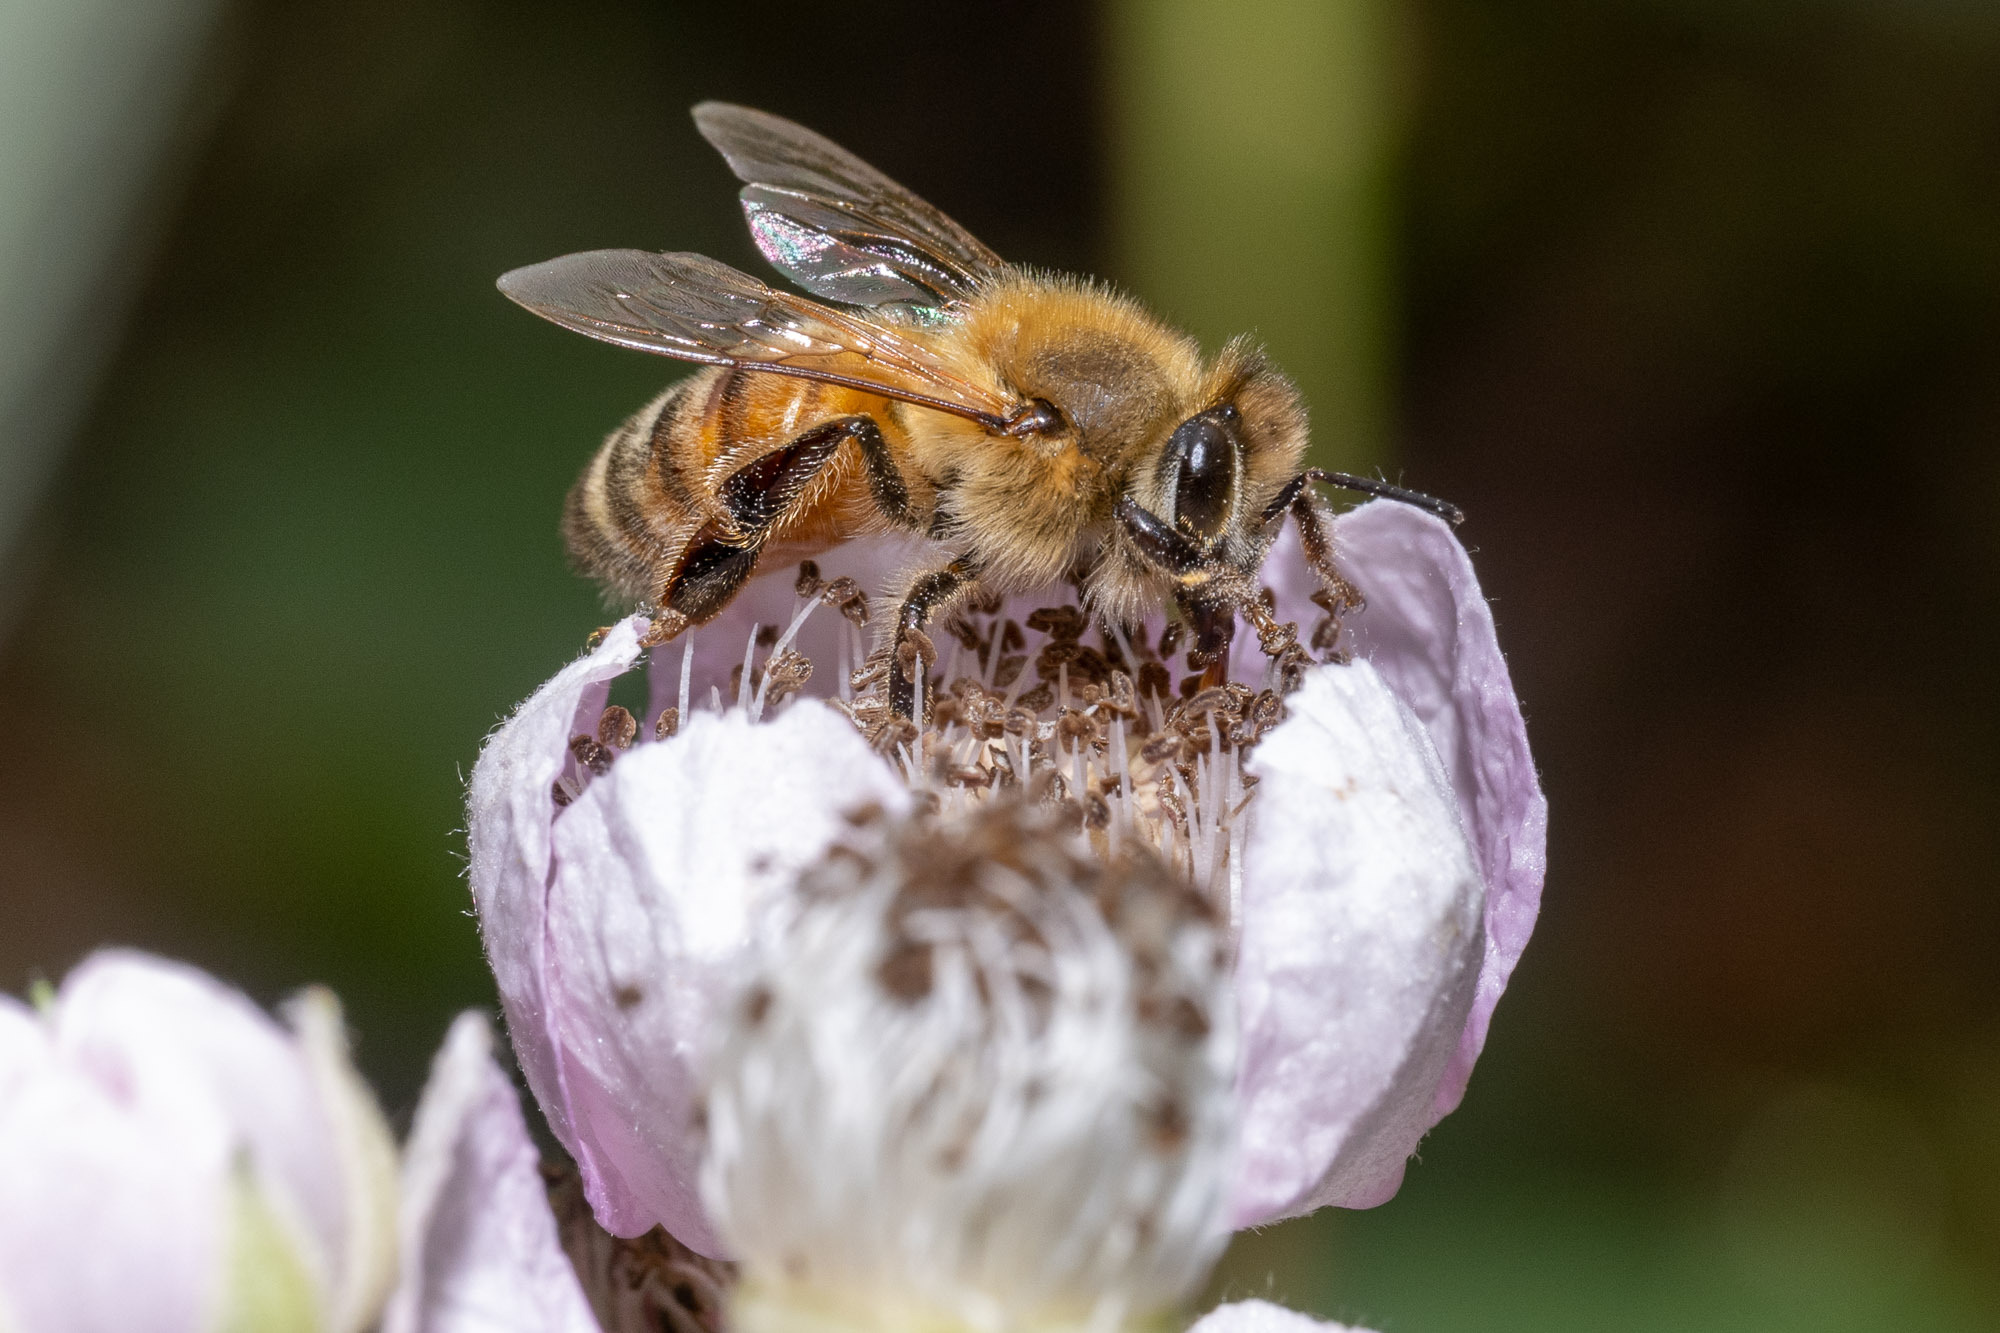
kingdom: Animalia
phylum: Arthropoda
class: Insecta
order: Hymenoptera
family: Apidae
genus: Apis
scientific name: Apis mellifera
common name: Honey bee
